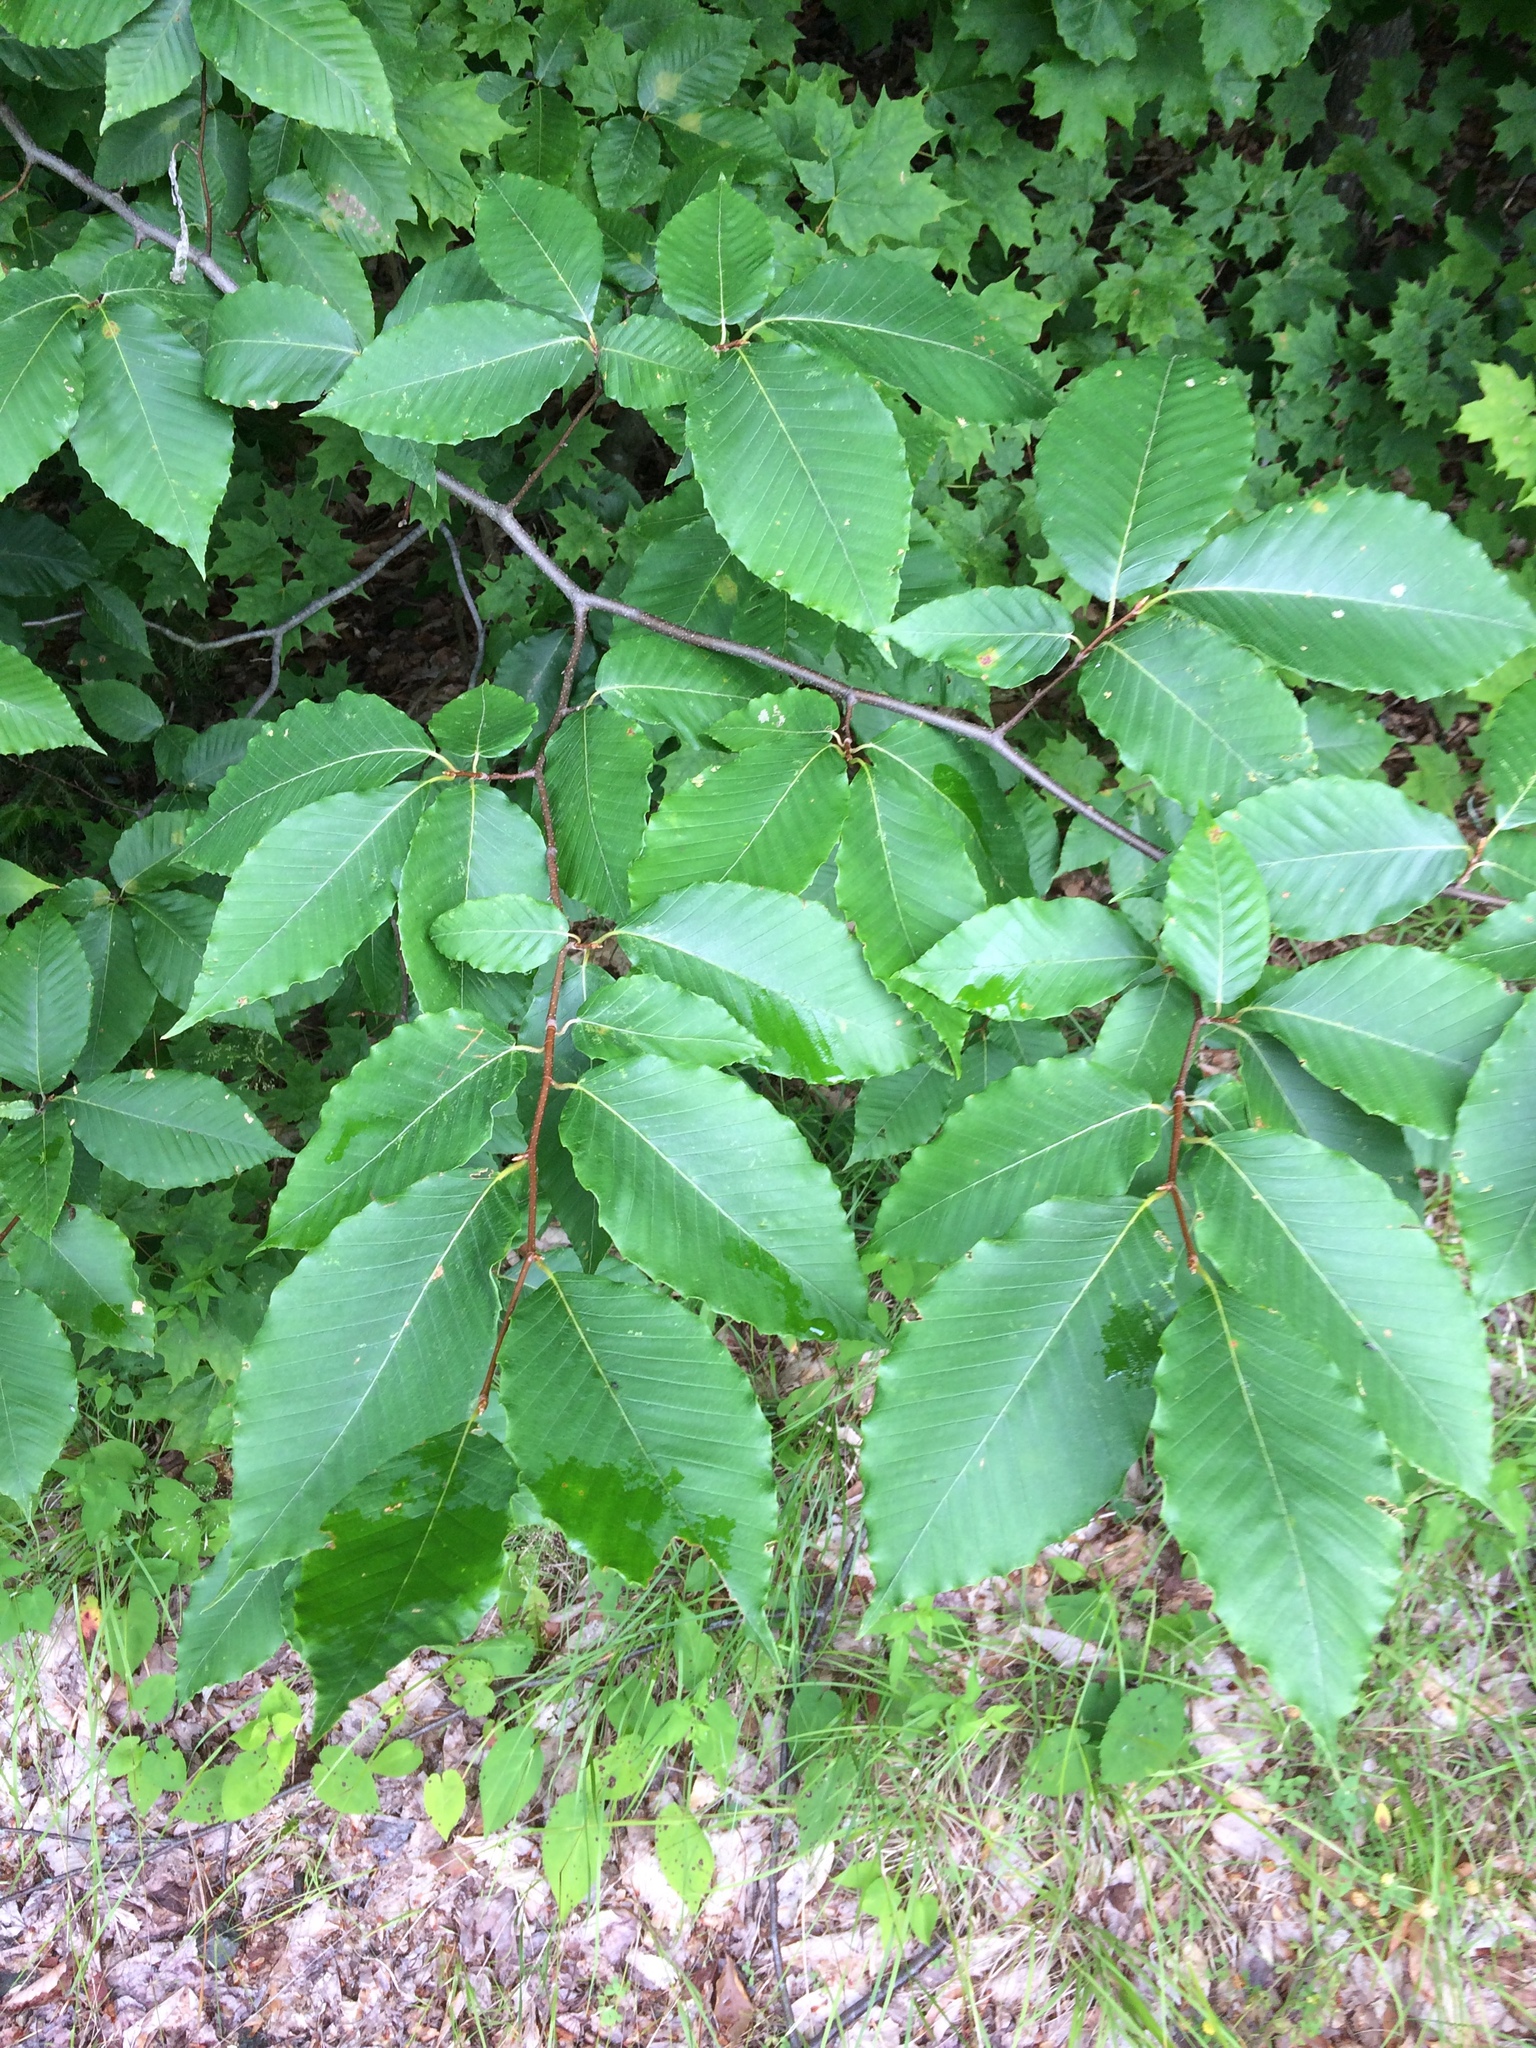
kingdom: Plantae
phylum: Tracheophyta
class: Magnoliopsida
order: Fagales
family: Fagaceae
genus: Fagus
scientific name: Fagus grandifolia
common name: American beech
